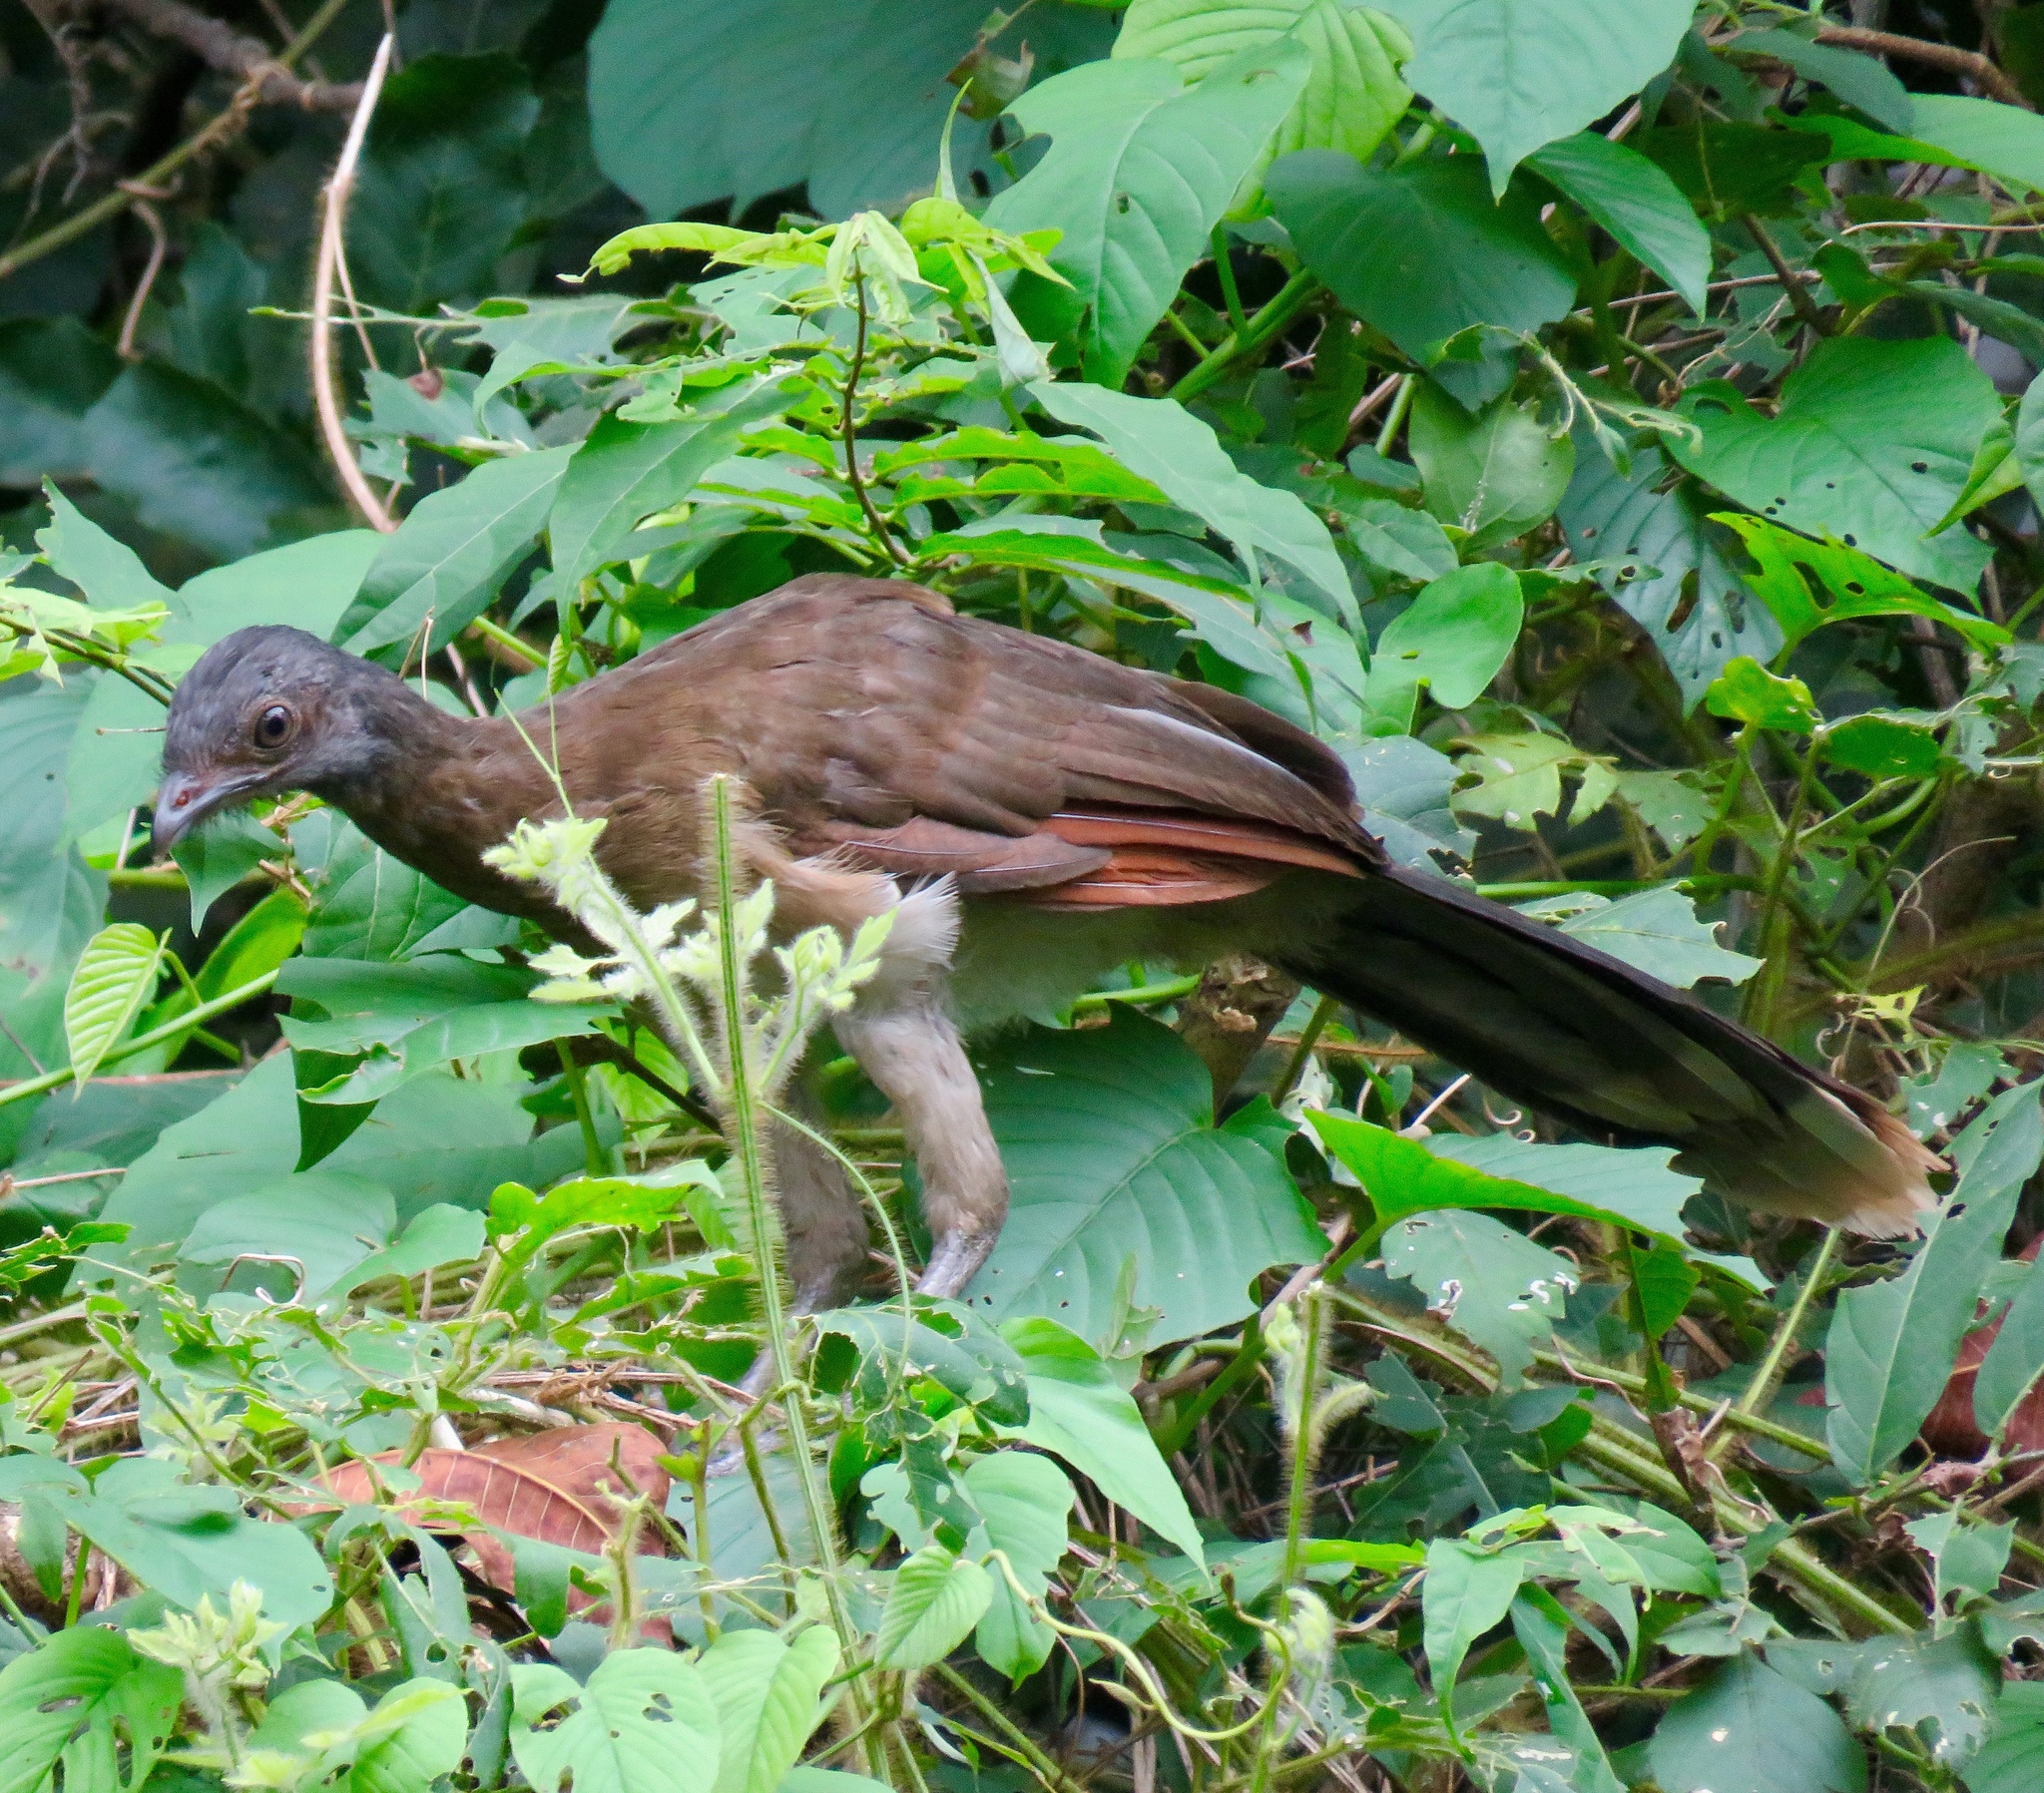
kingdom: Animalia
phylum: Chordata
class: Aves
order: Galliformes
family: Cracidae
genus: Ortalis
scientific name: Ortalis cinereiceps
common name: Grey-headed chachalaca
